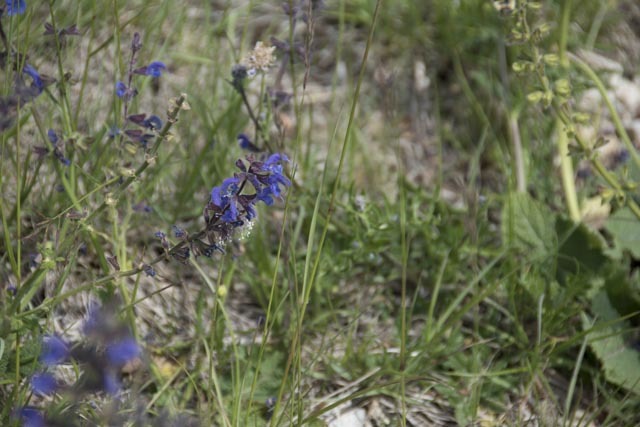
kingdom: Plantae
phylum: Tracheophyta
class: Magnoliopsida
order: Lamiales
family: Lamiaceae
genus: Salvia
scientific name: Salvia pratensis
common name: Meadow sage
